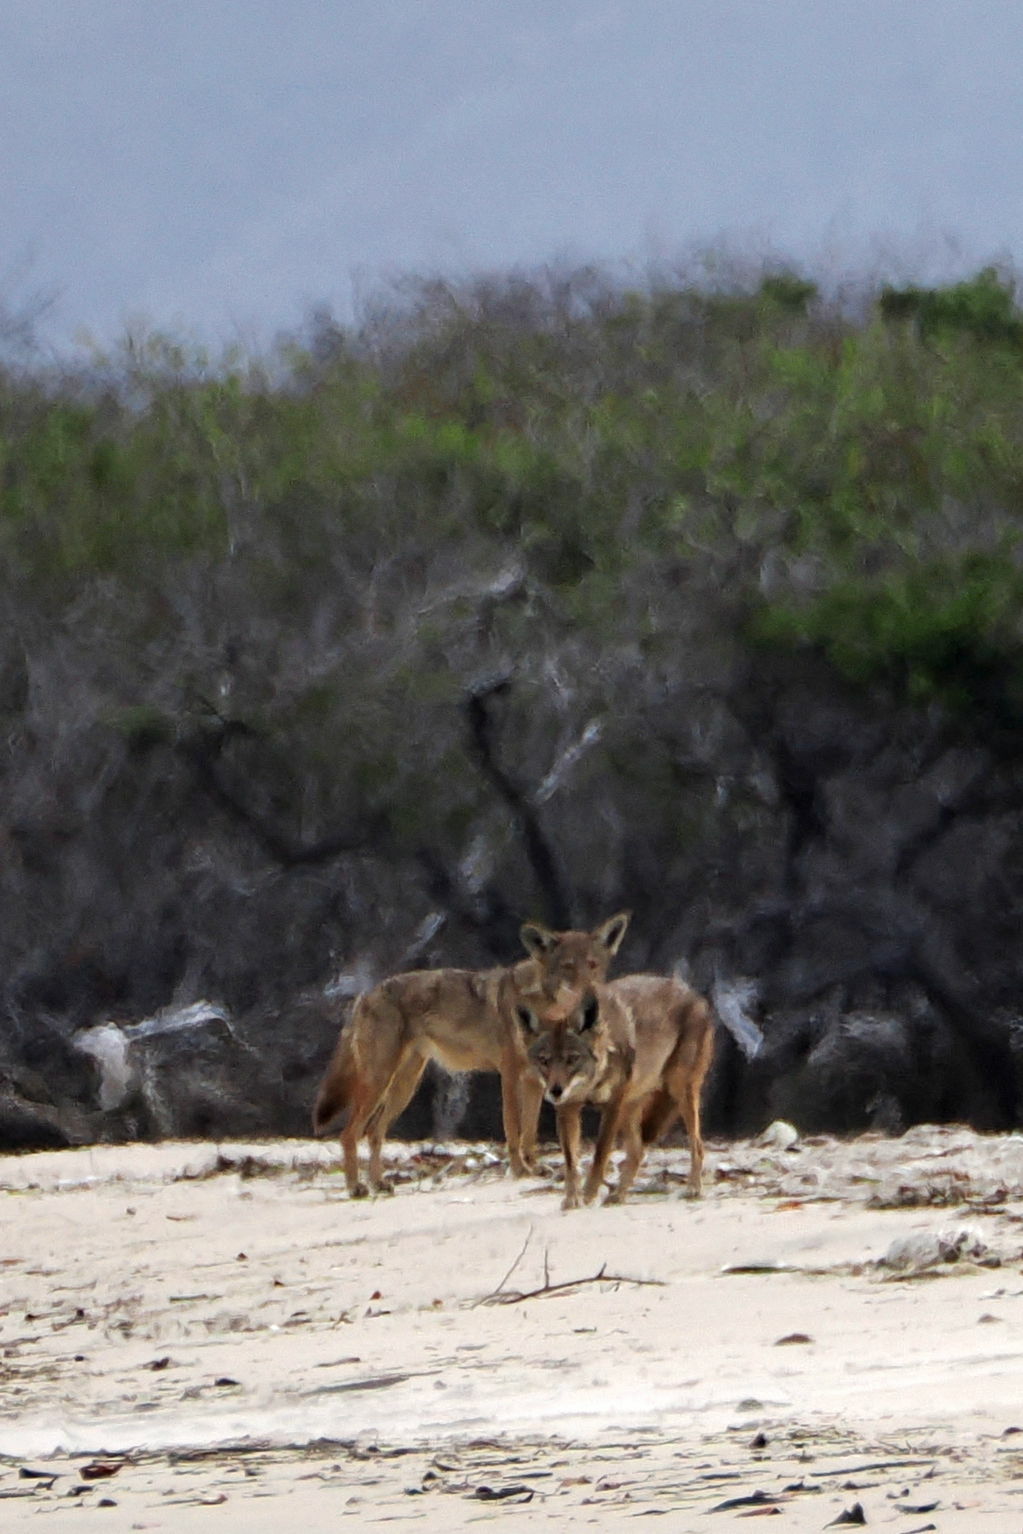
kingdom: Animalia
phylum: Chordata
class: Mammalia
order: Carnivora
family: Canidae
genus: Canis
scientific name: Canis latrans
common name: Coyote
